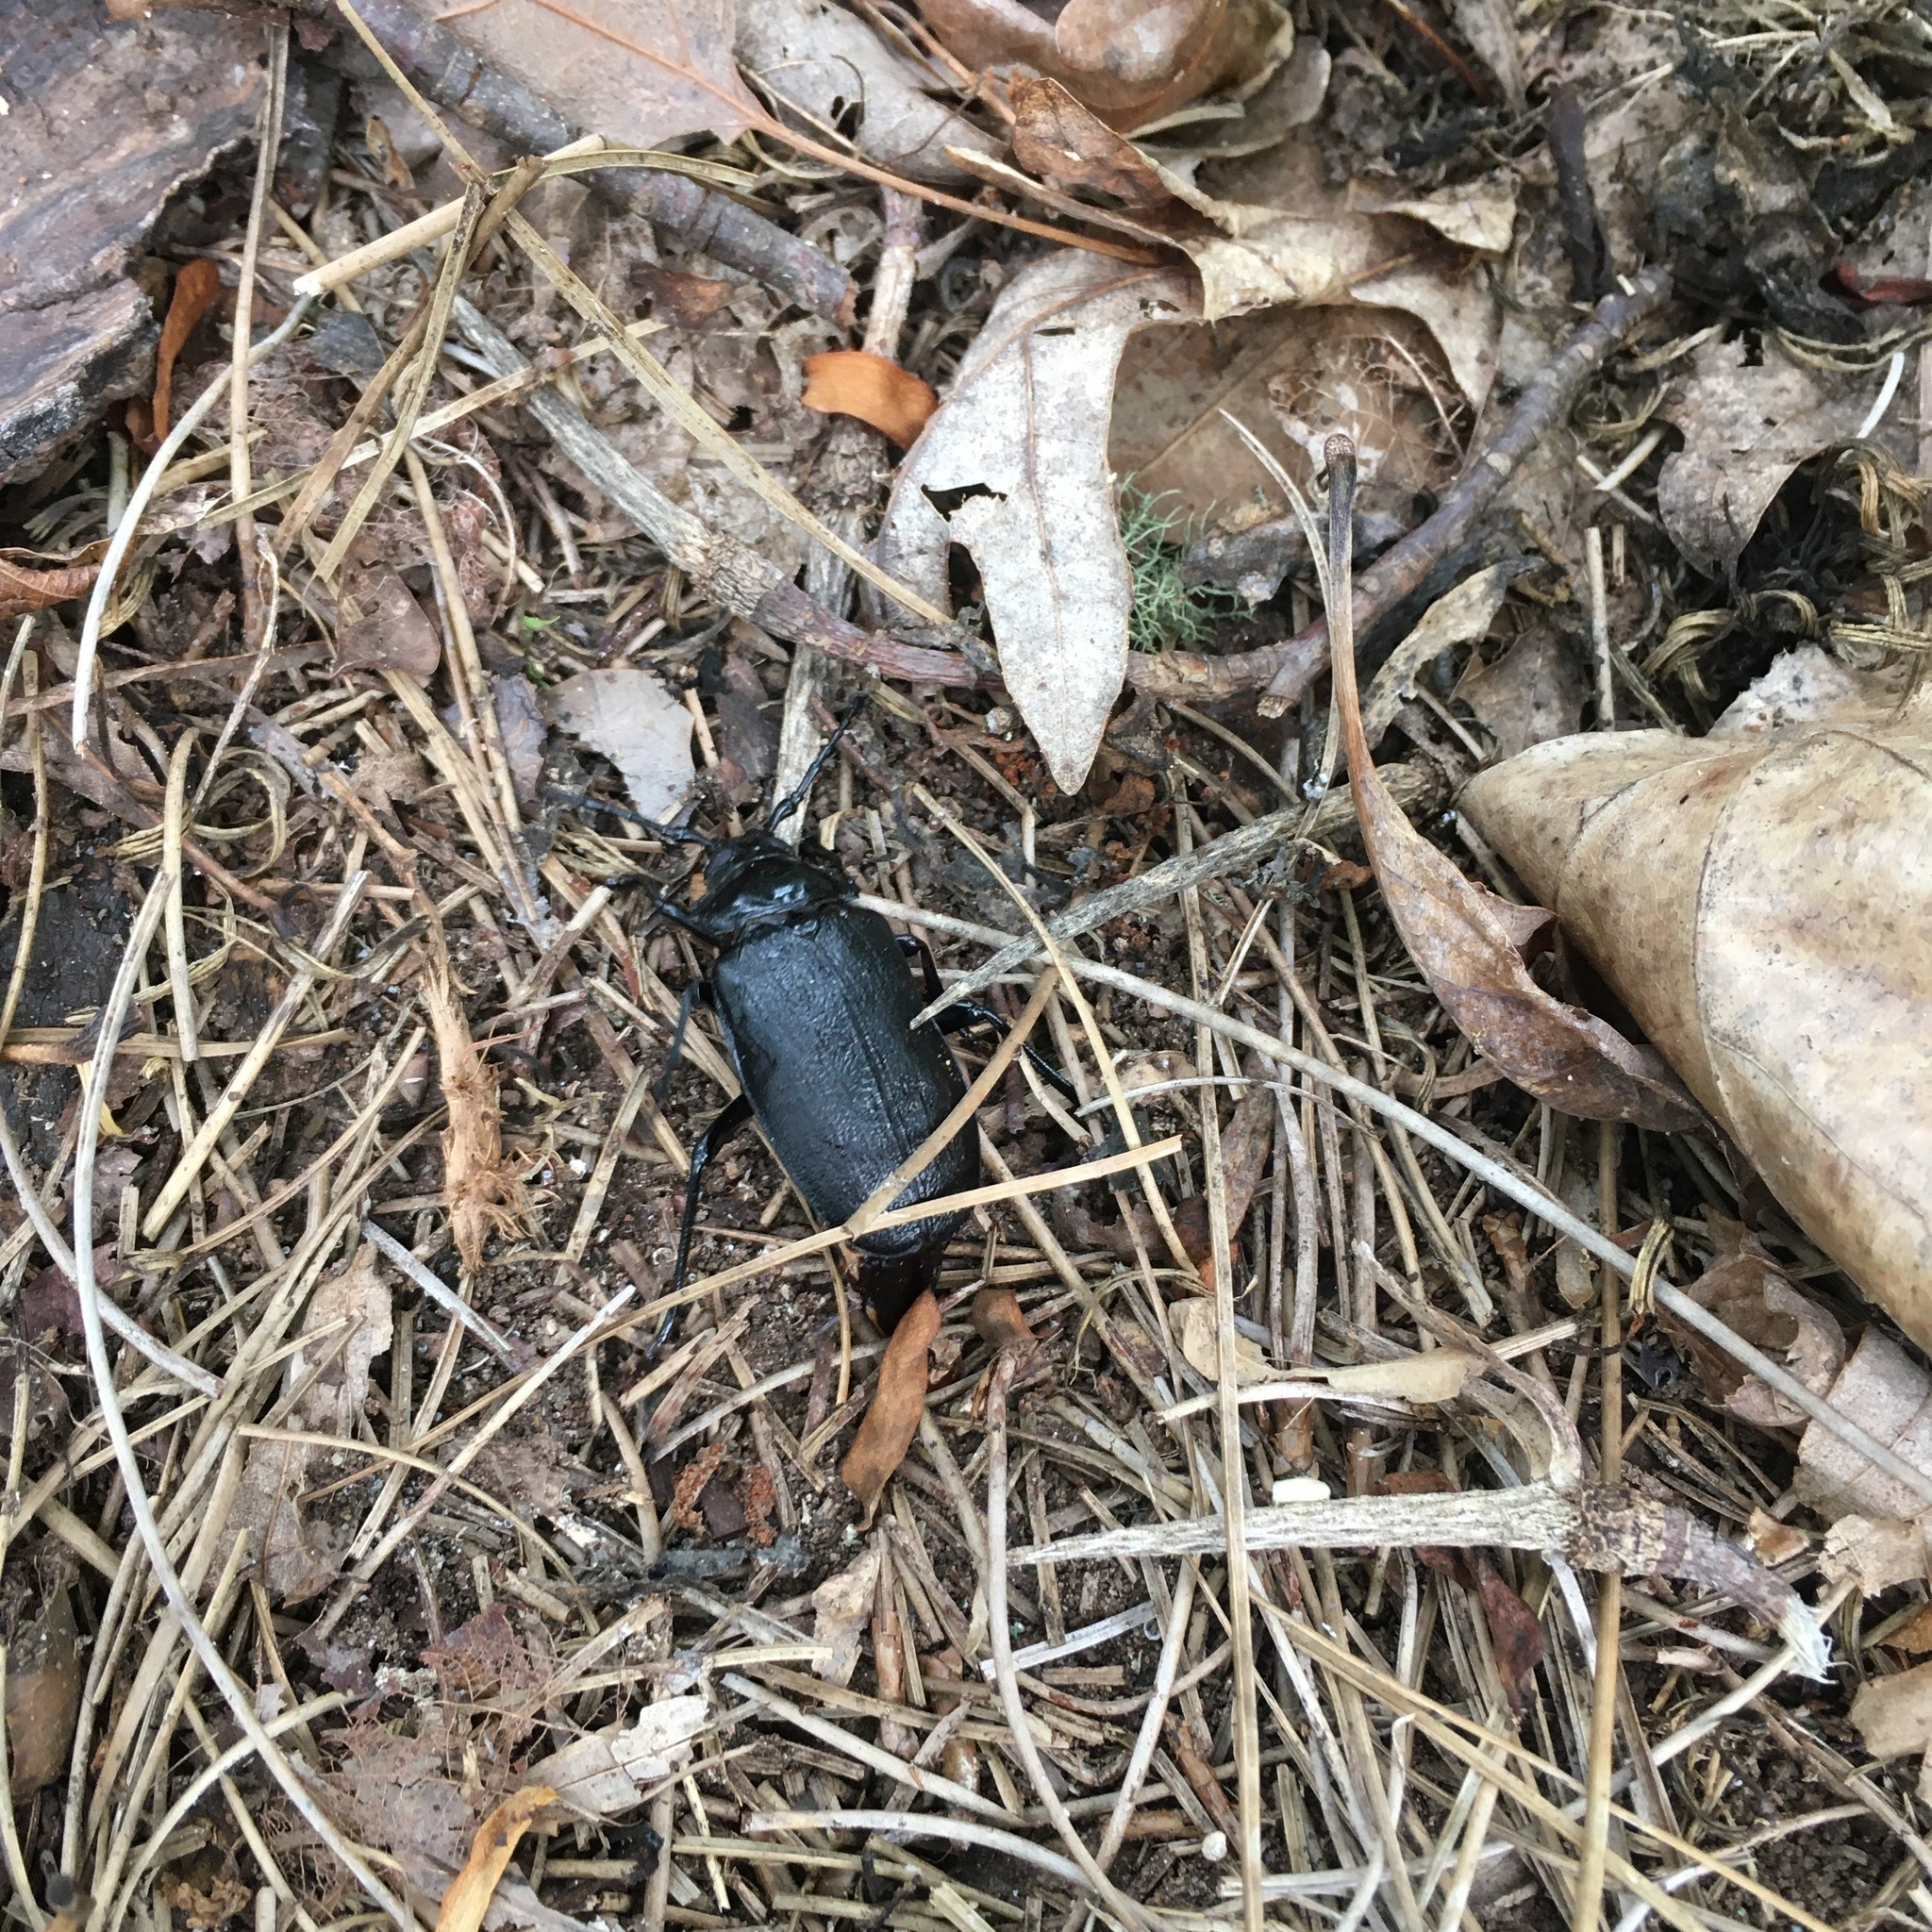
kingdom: Animalia
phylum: Arthropoda
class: Insecta
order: Coleoptera
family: Cerambycidae
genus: Prionus
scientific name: Prionus laticollis
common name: Broad necked prionus
